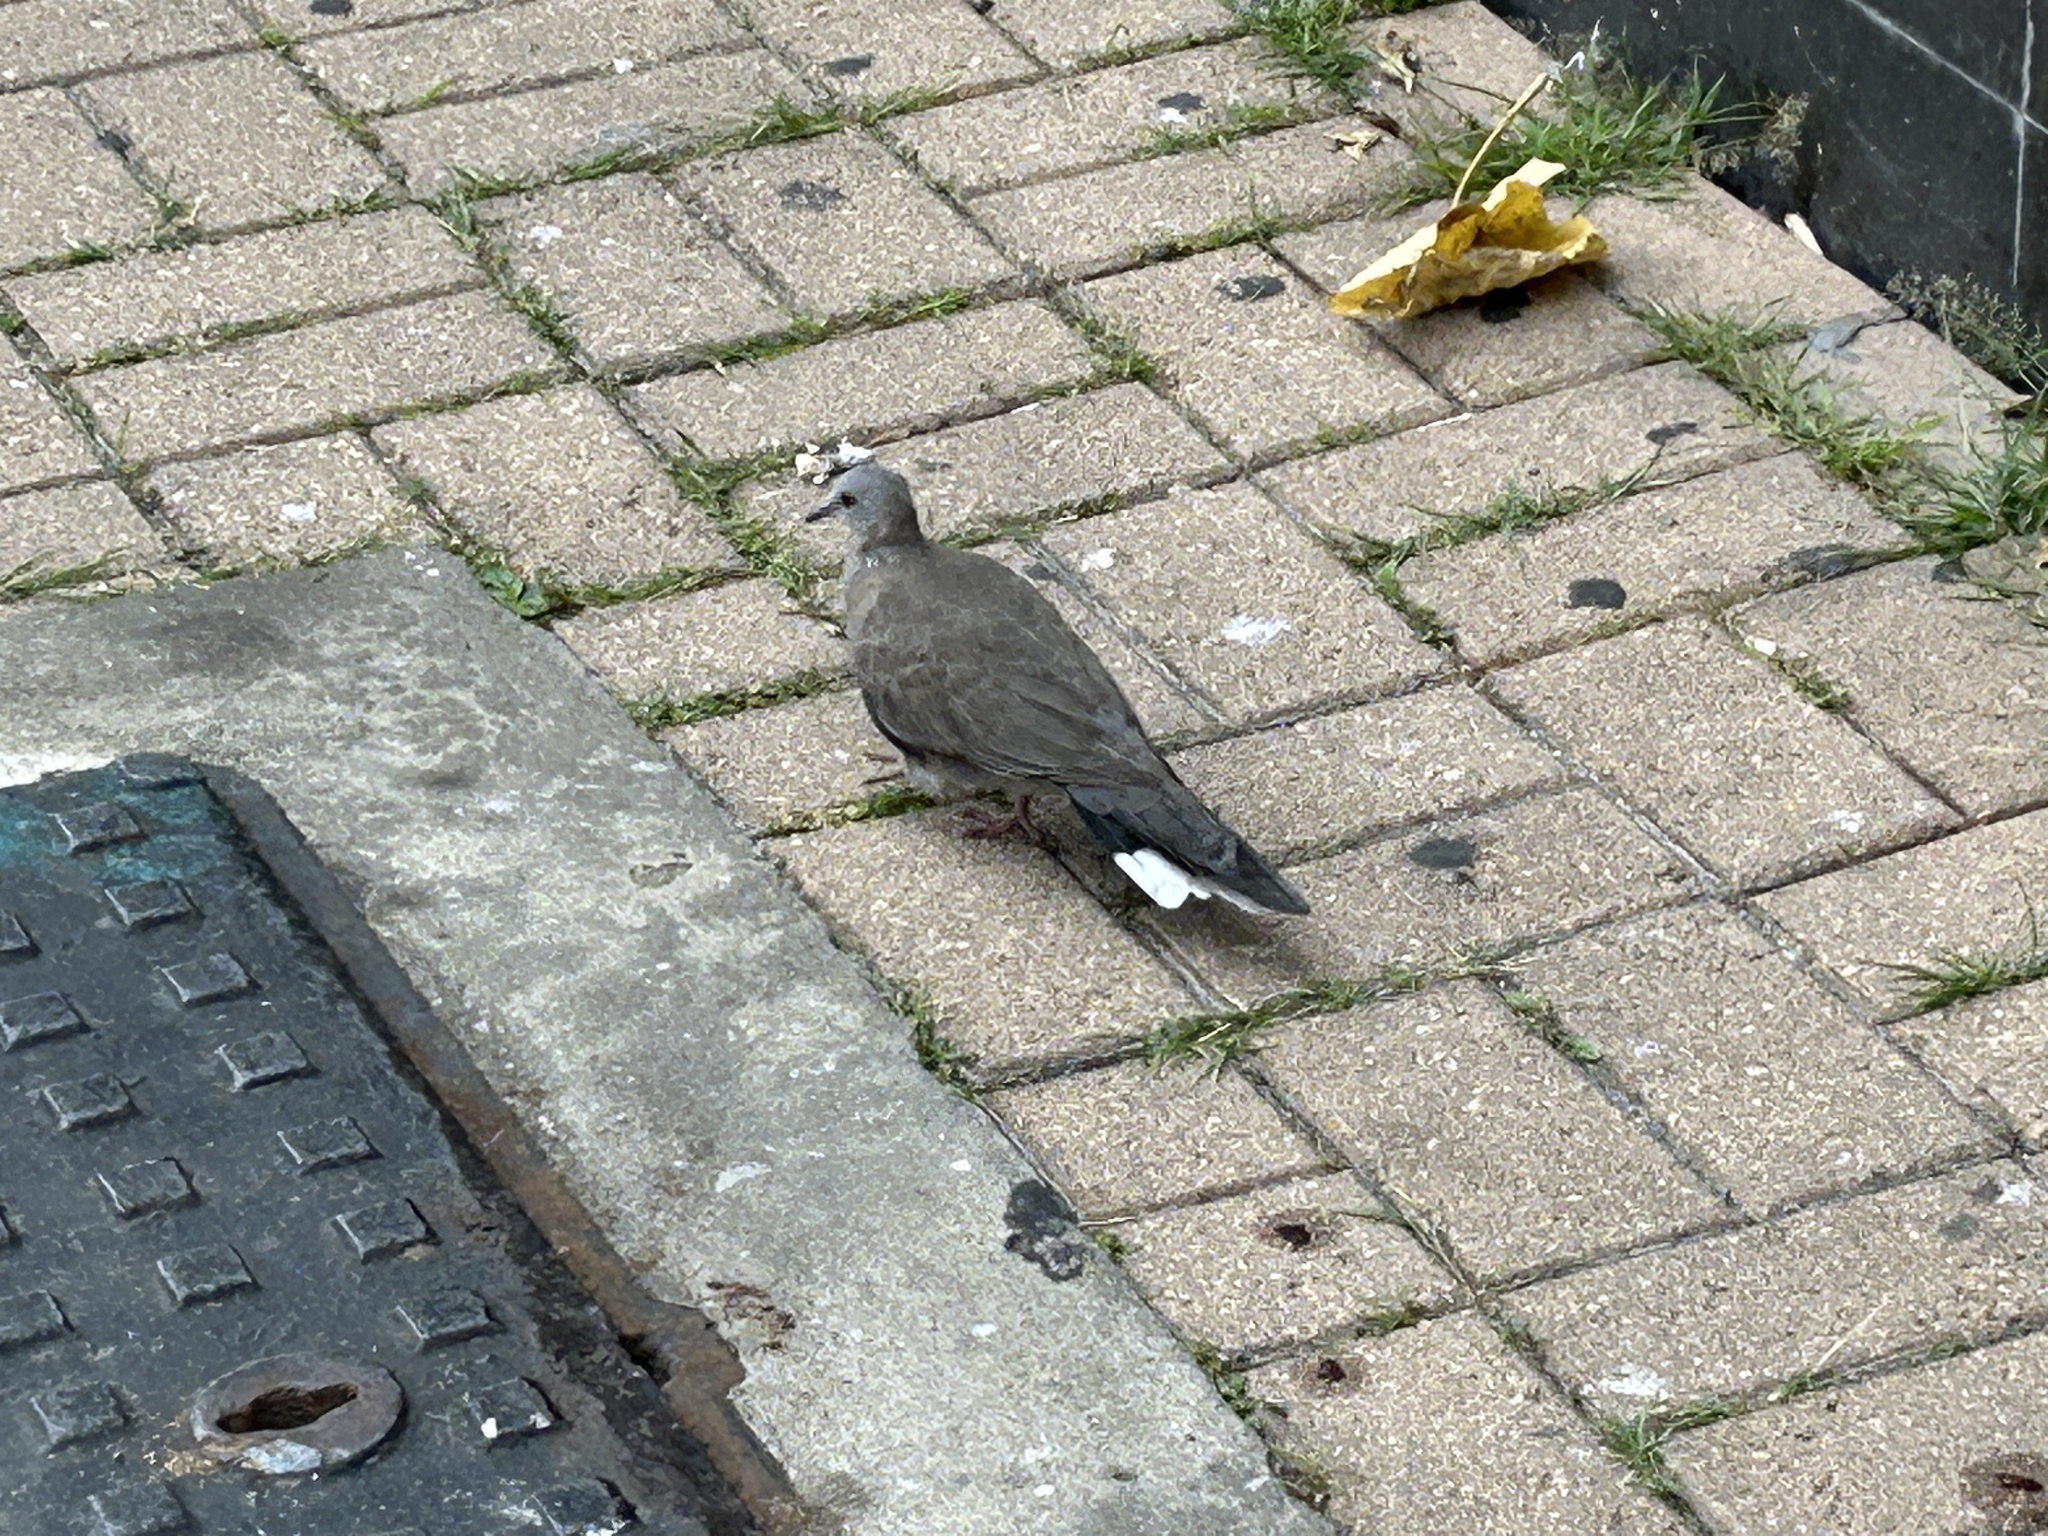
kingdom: Animalia
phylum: Chordata
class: Aves
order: Columbiformes
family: Columbidae
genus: Spilopelia
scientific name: Spilopelia chinensis
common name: Spotted dove
